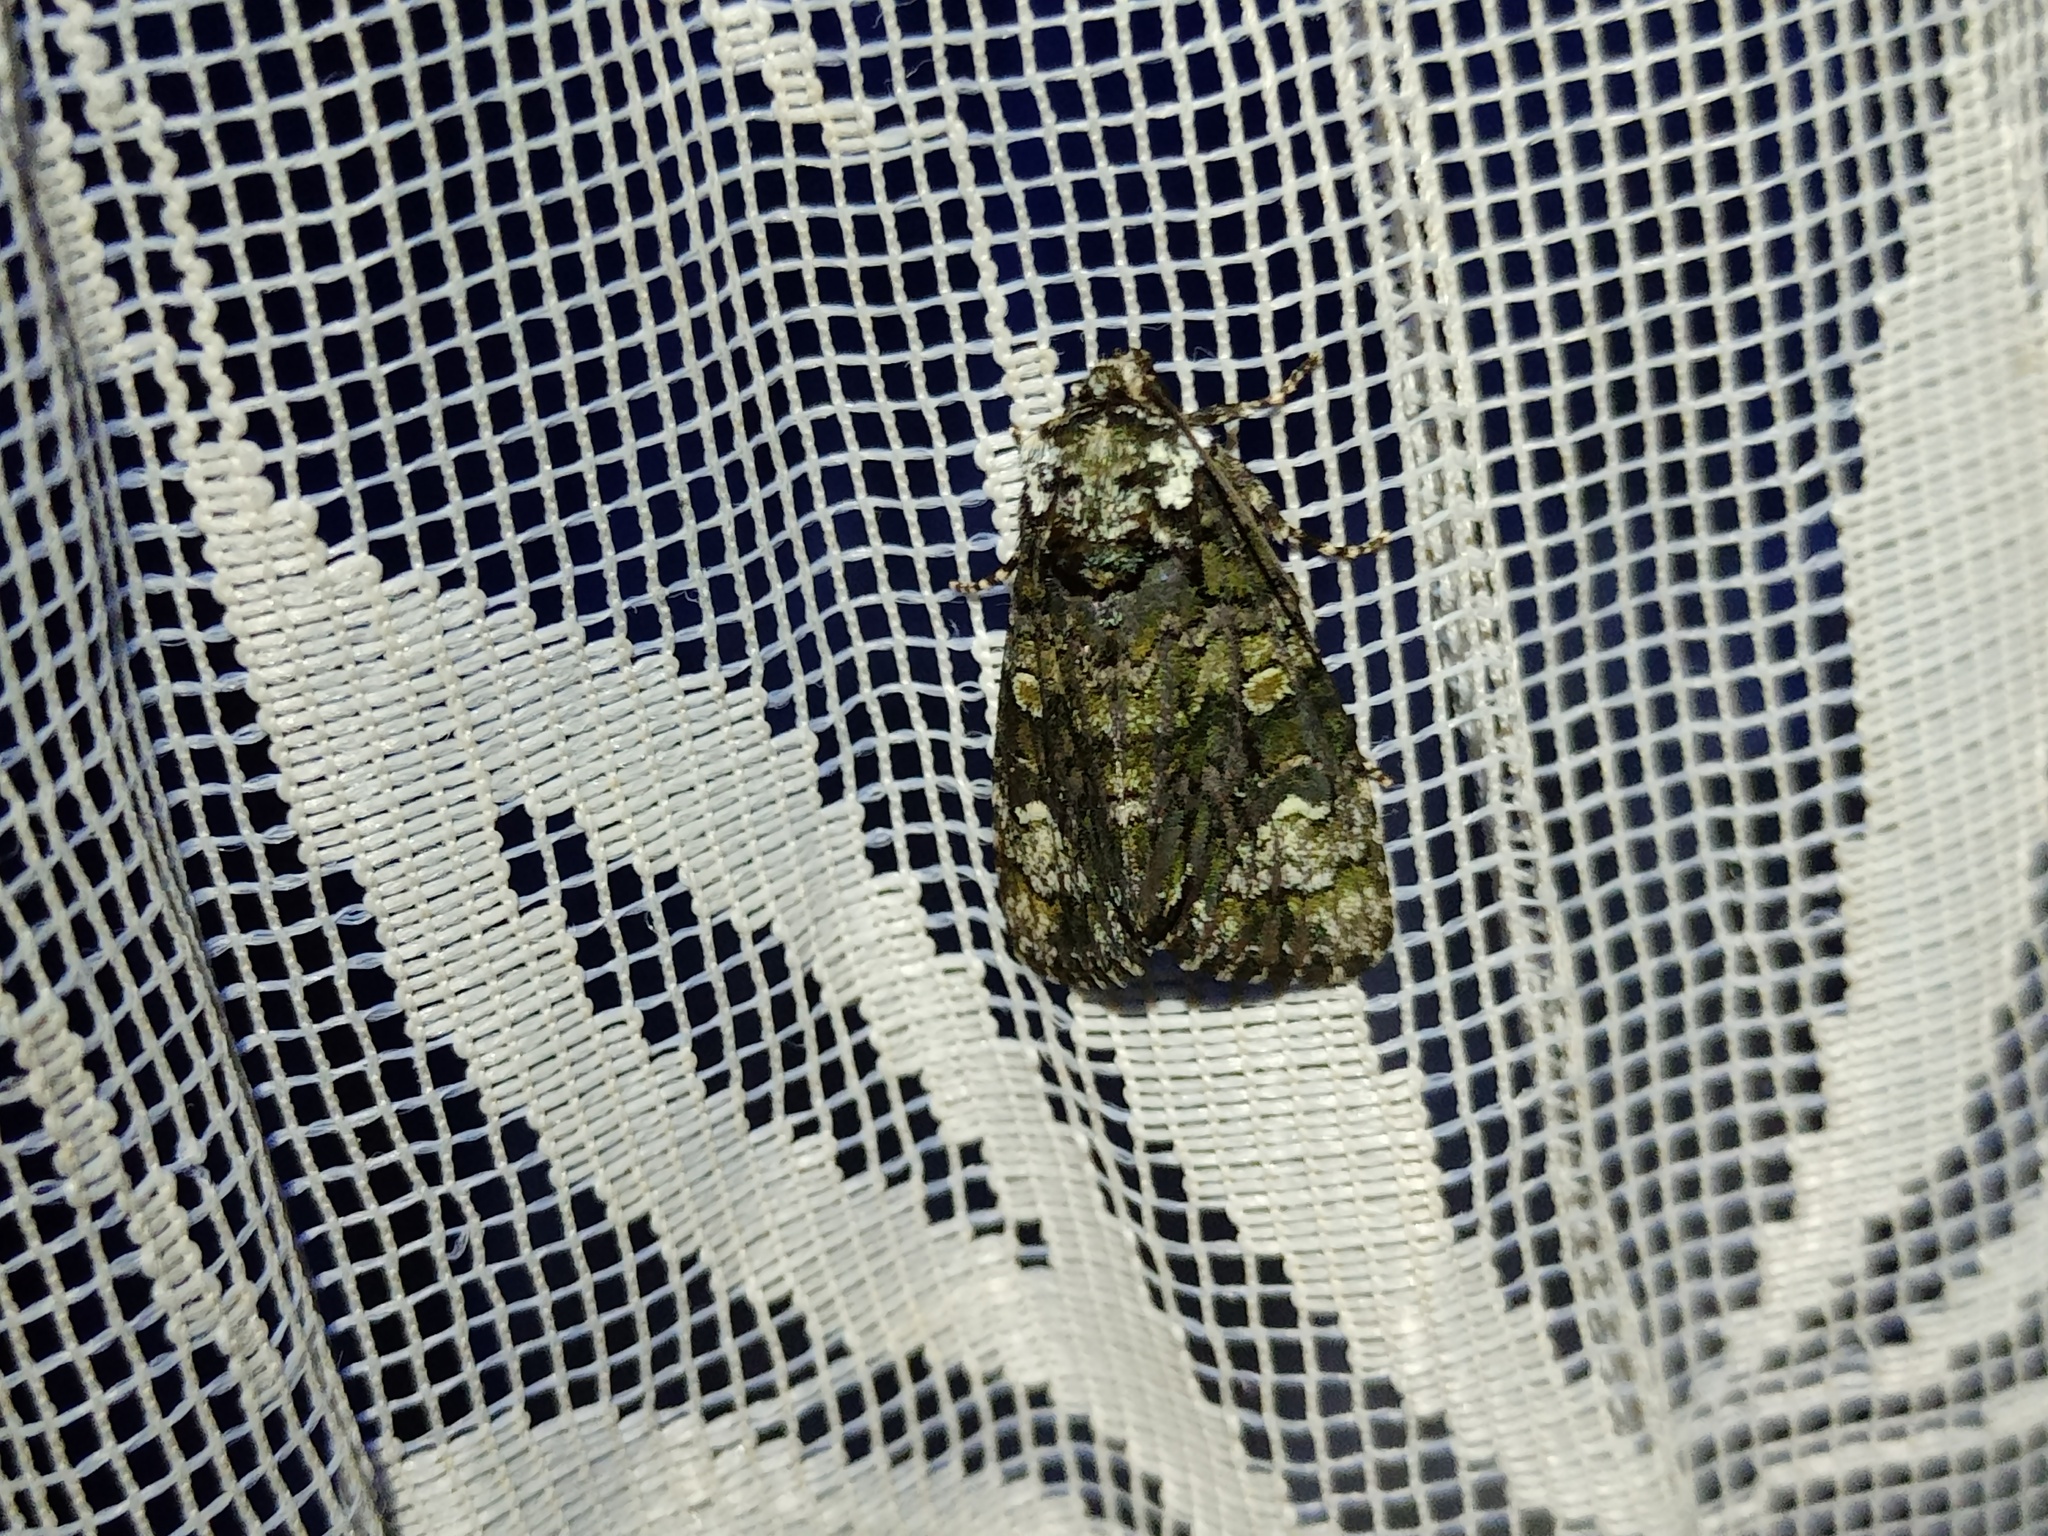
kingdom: Animalia
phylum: Arthropoda
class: Insecta
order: Lepidoptera
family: Noctuidae
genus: Craniophora
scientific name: Craniophora ligustri
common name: Coronet
